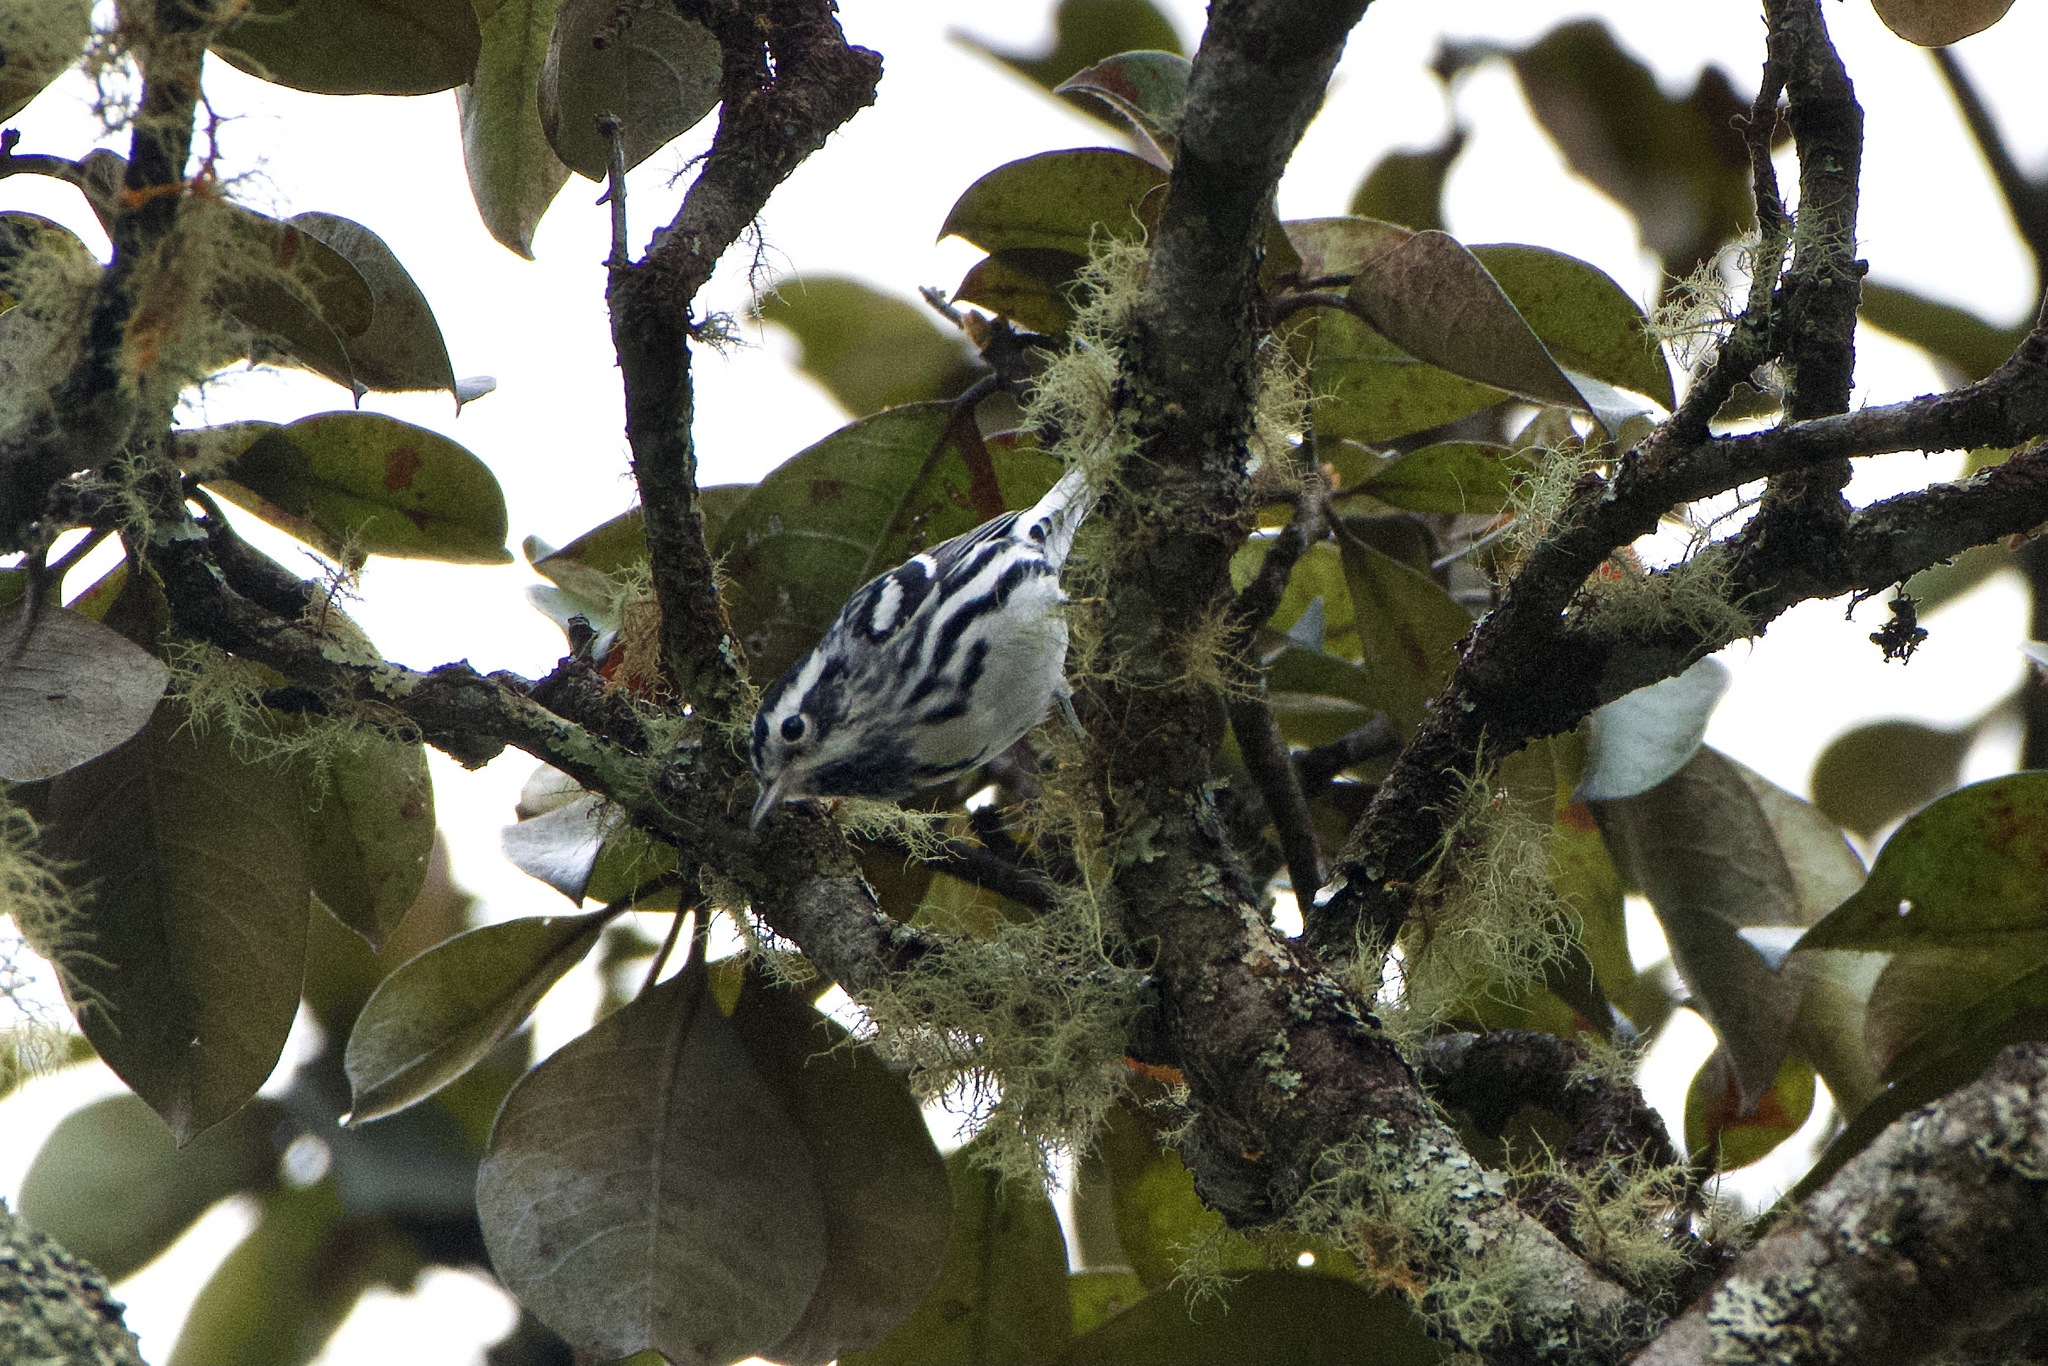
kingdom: Animalia
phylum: Chordata
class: Aves
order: Passeriformes
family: Parulidae
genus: Mniotilta
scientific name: Mniotilta varia
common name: Black-and-white warbler
